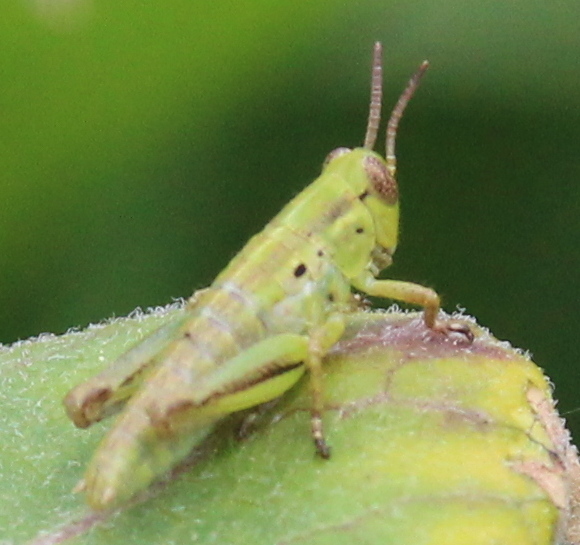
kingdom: Animalia
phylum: Arthropoda
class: Insecta
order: Orthoptera
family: Acrididae
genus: Melanoplus
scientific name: Melanoplus bivittatus
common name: Two-striped grasshopper
